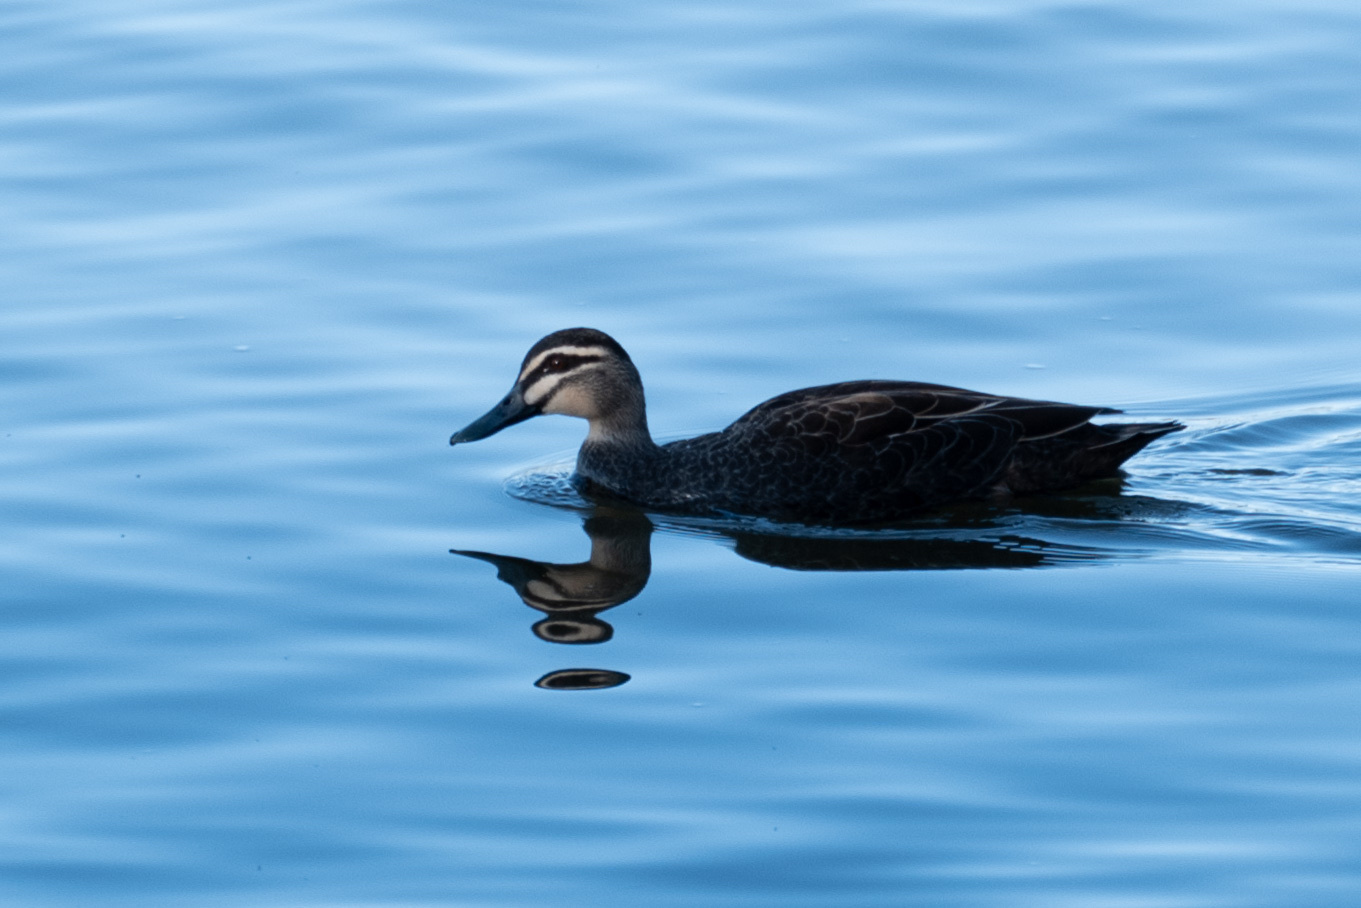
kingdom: Animalia
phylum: Chordata
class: Aves
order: Anseriformes
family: Anatidae
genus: Anas
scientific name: Anas superciliosa
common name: Pacific black duck
